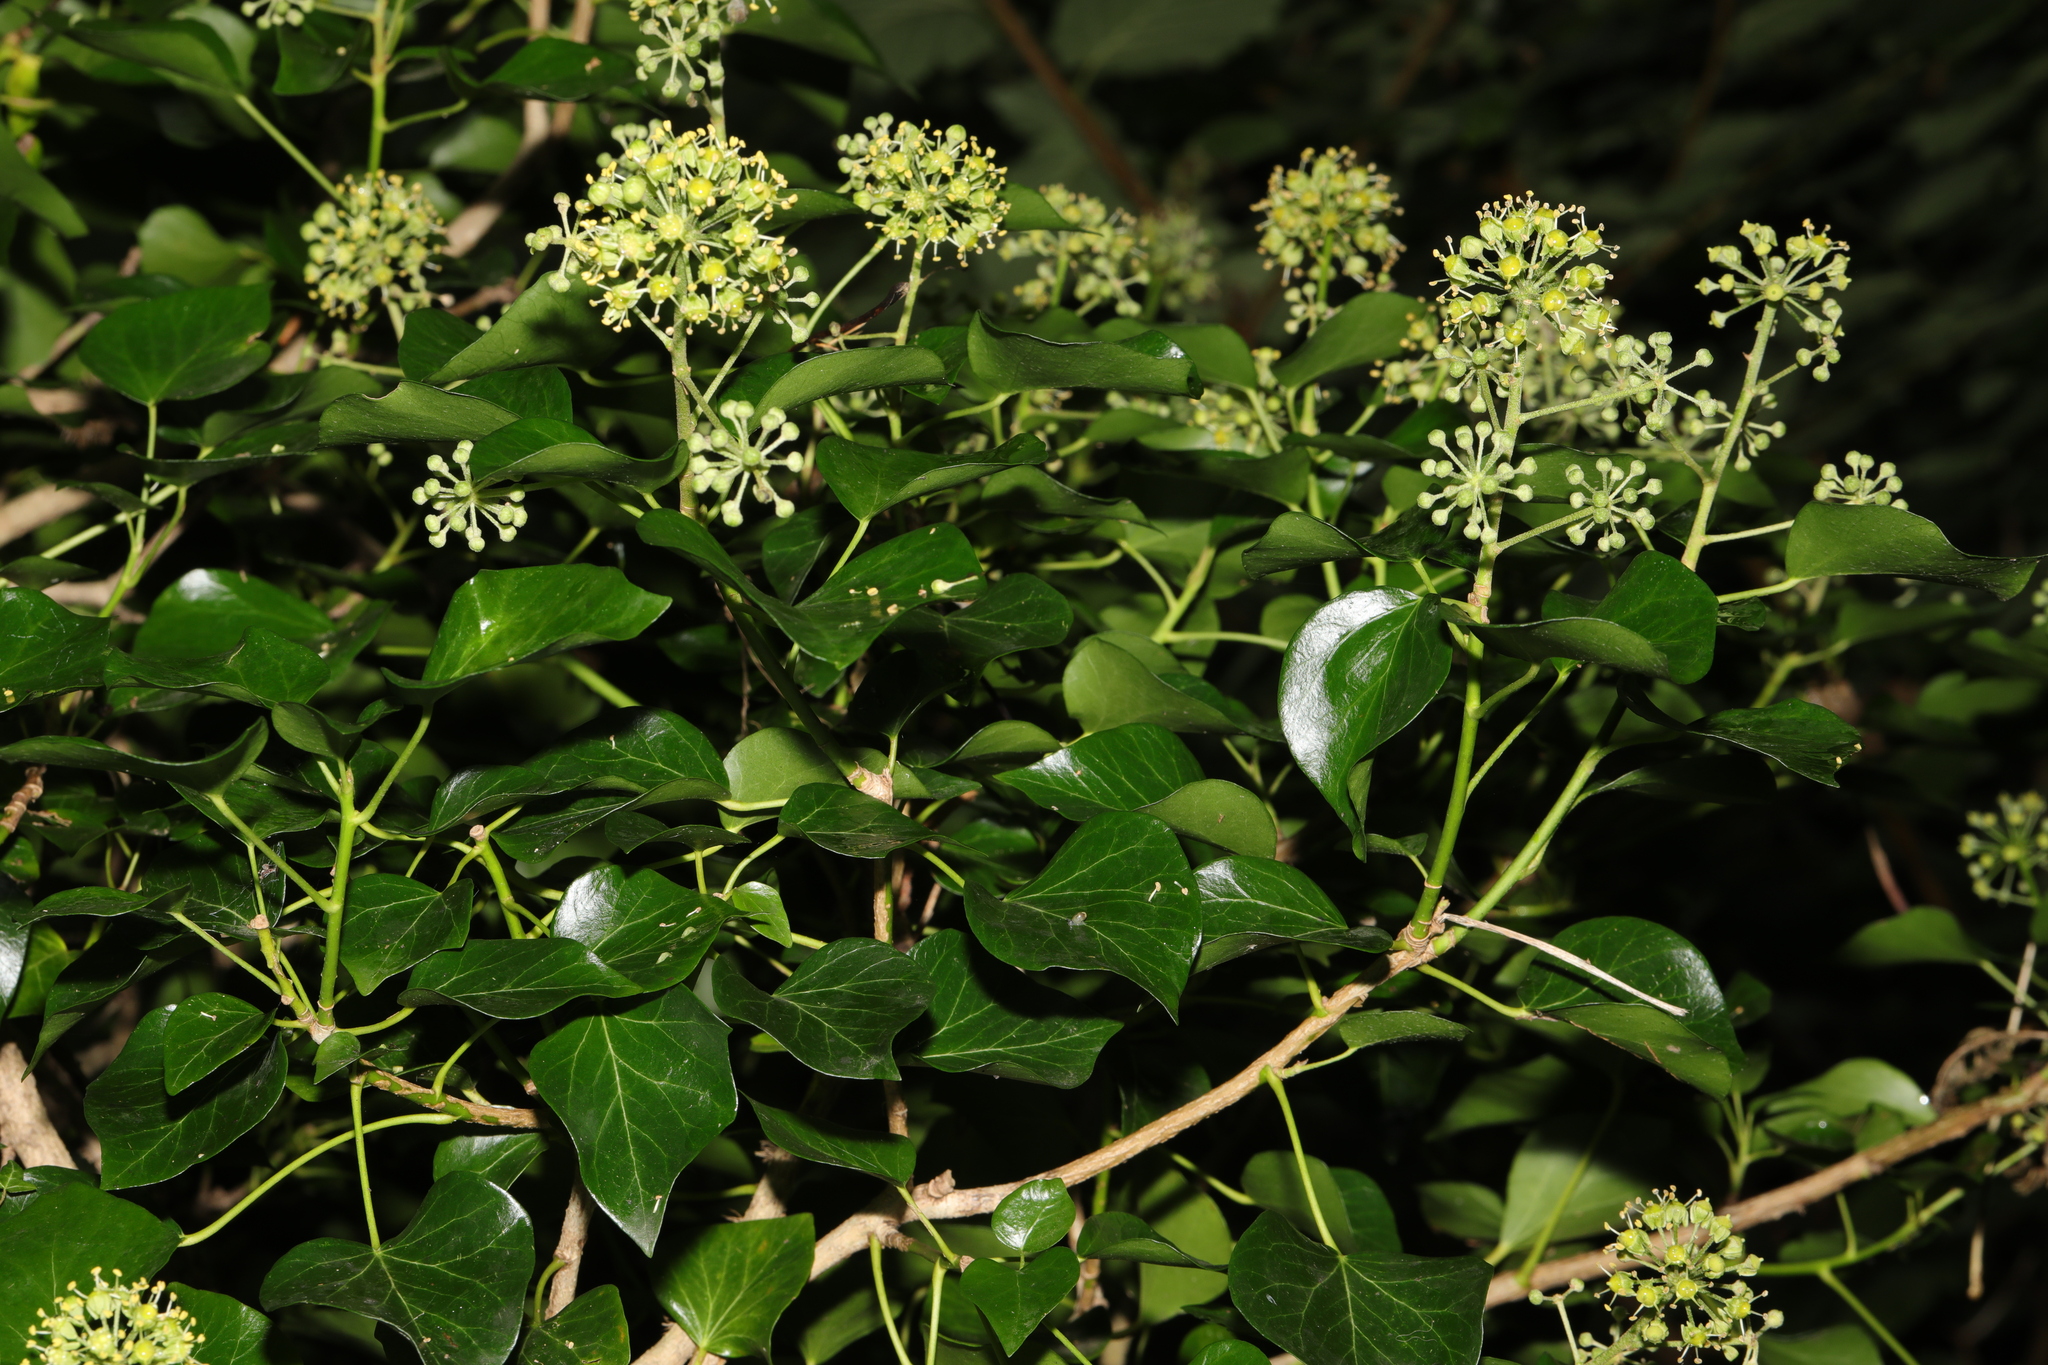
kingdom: Plantae
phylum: Tracheophyta
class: Magnoliopsida
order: Apiales
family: Araliaceae
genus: Hedera
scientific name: Hedera helix
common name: Ivy
